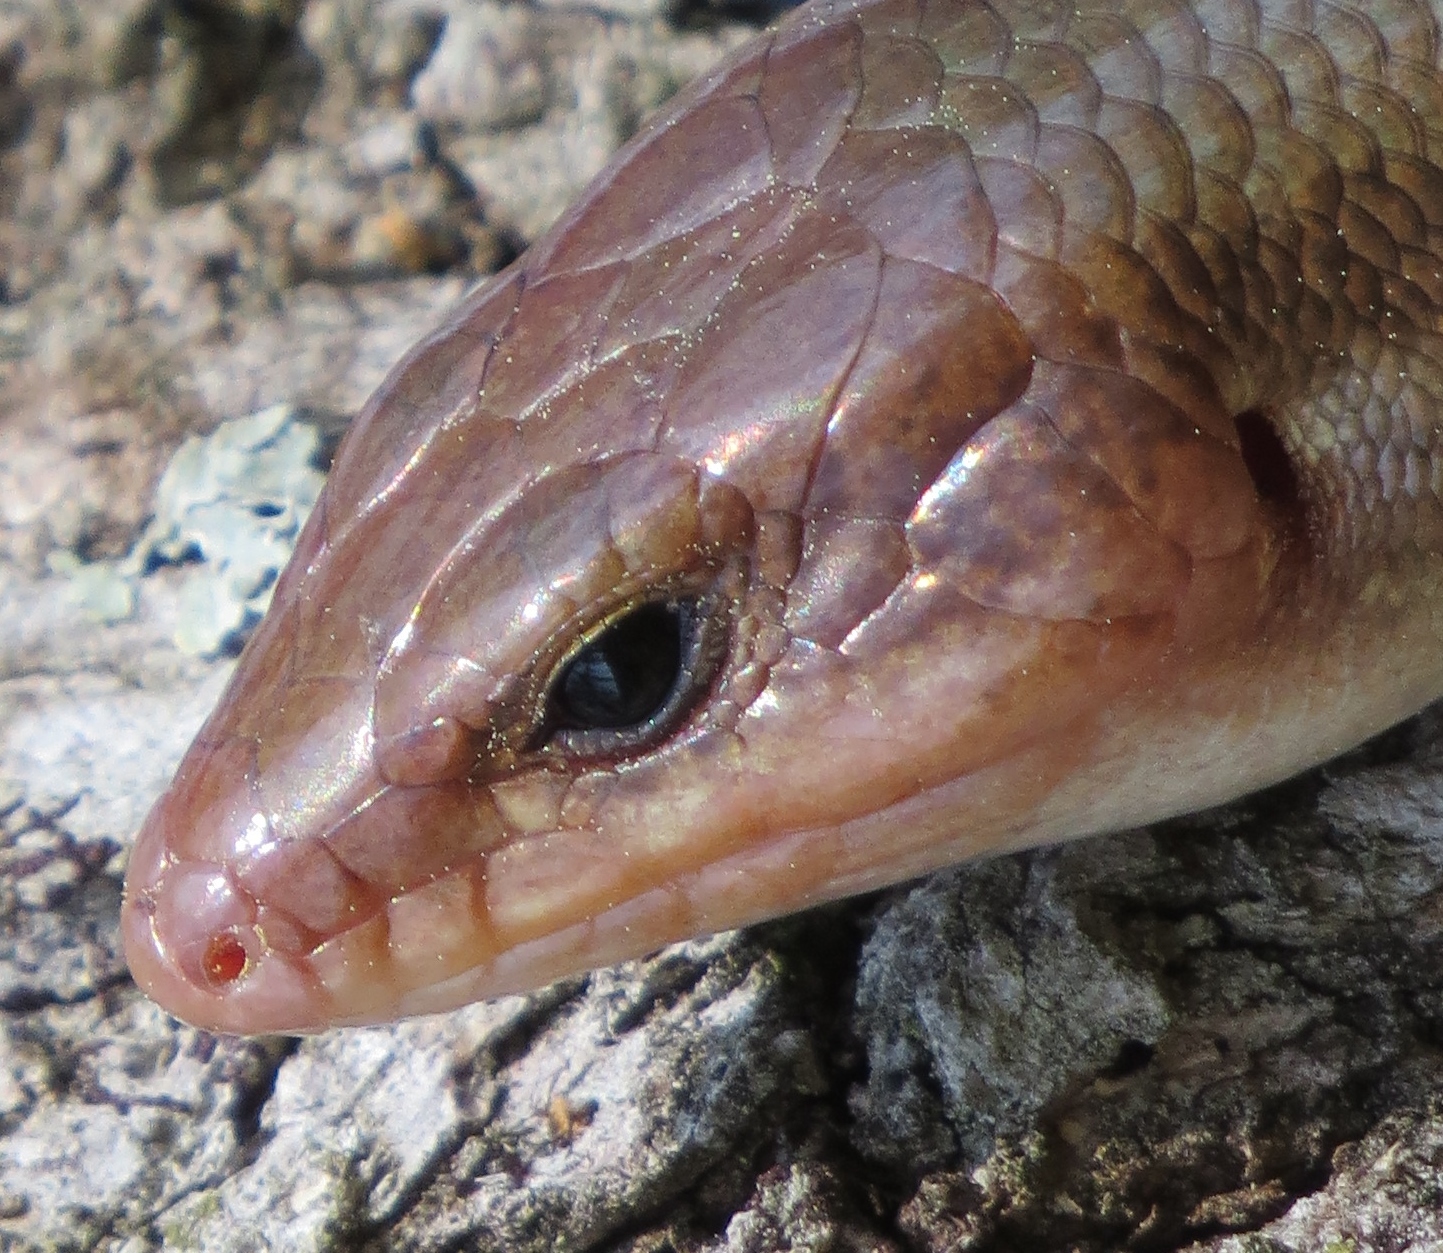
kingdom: Animalia
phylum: Chordata
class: Squamata
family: Scincidae
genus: Plestiodon
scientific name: Plestiodon laticeps
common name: Broadhead skink
